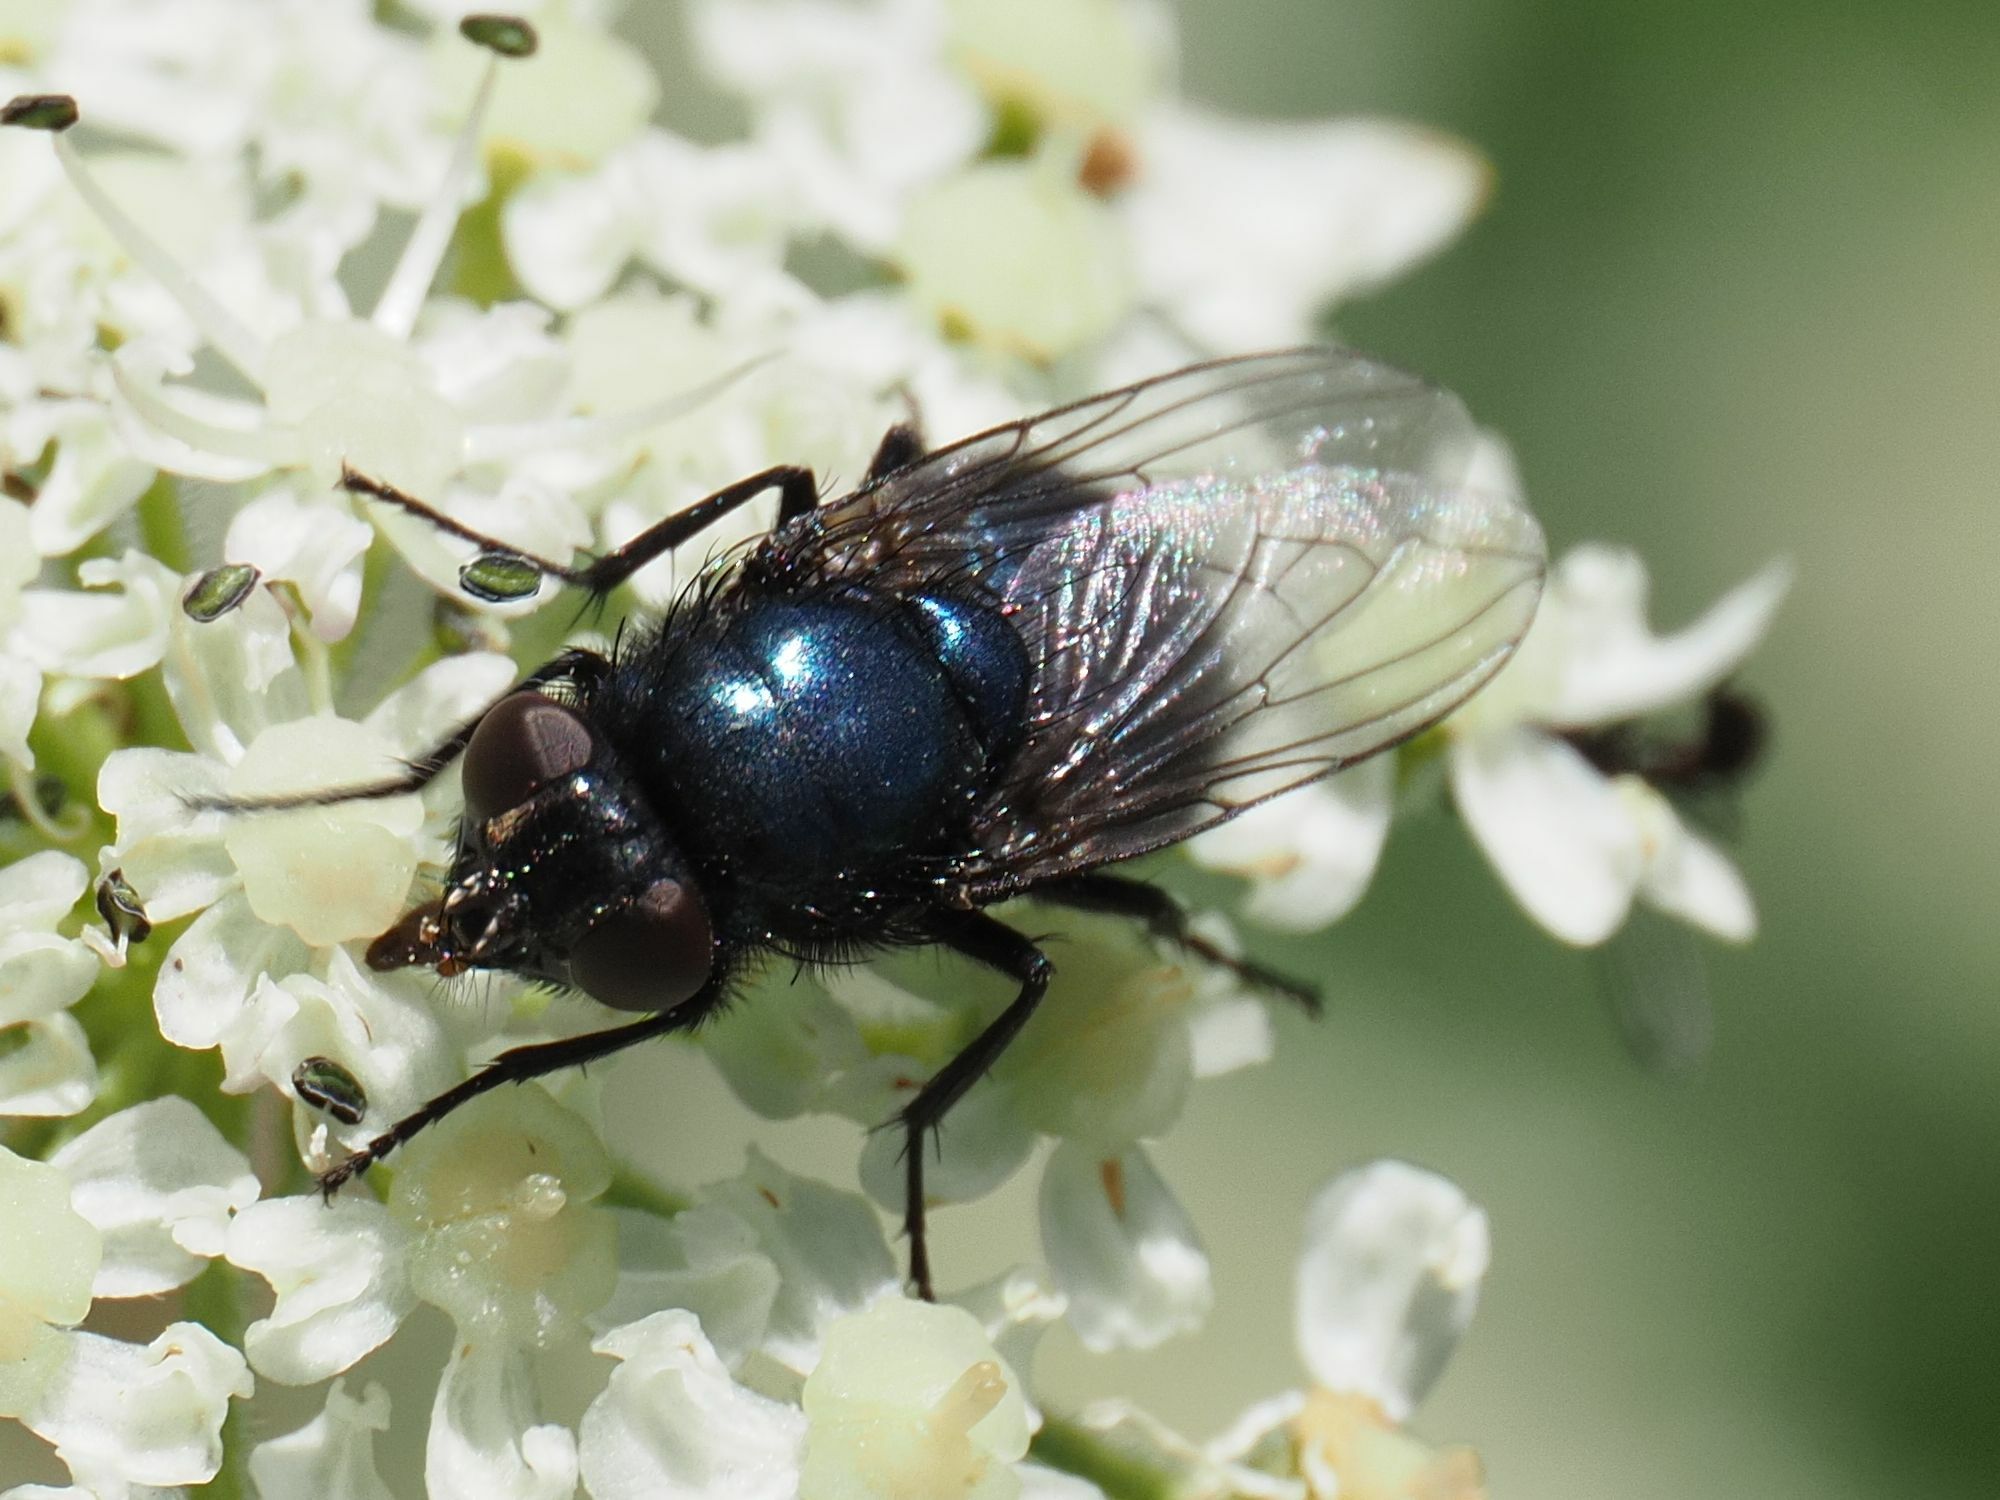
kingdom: Animalia
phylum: Arthropoda
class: Insecta
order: Diptera
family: Calliphoridae
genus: Protophormia
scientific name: Protophormia terraenovae
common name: Blackbottle
